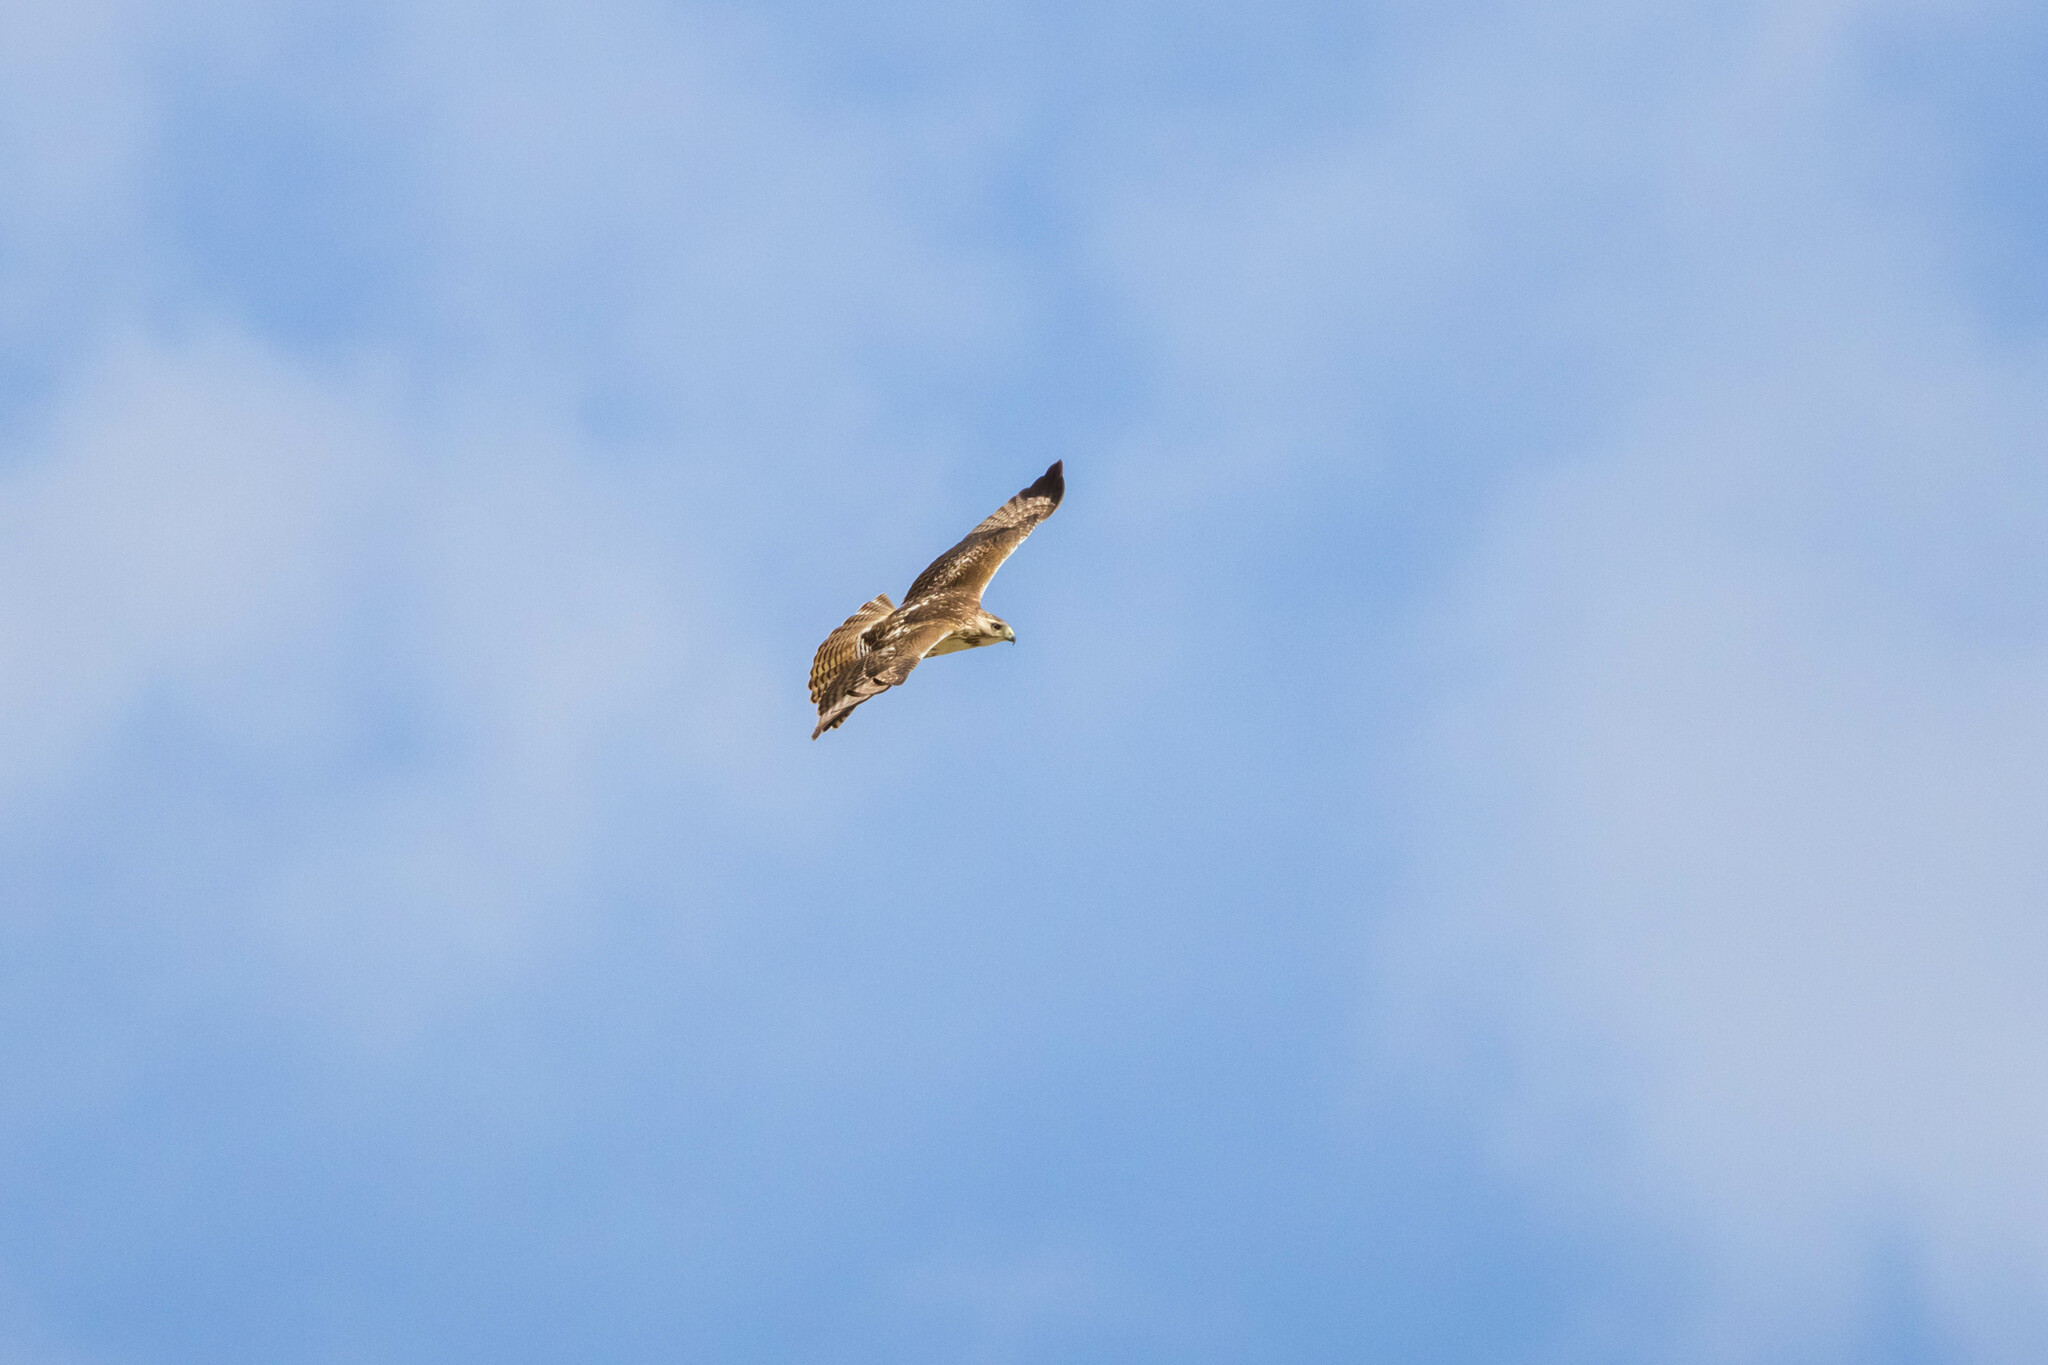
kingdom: Animalia
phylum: Chordata
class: Aves
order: Accipitriformes
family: Accipitridae
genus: Buteo
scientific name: Buteo jamaicensis
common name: Red-tailed hawk
